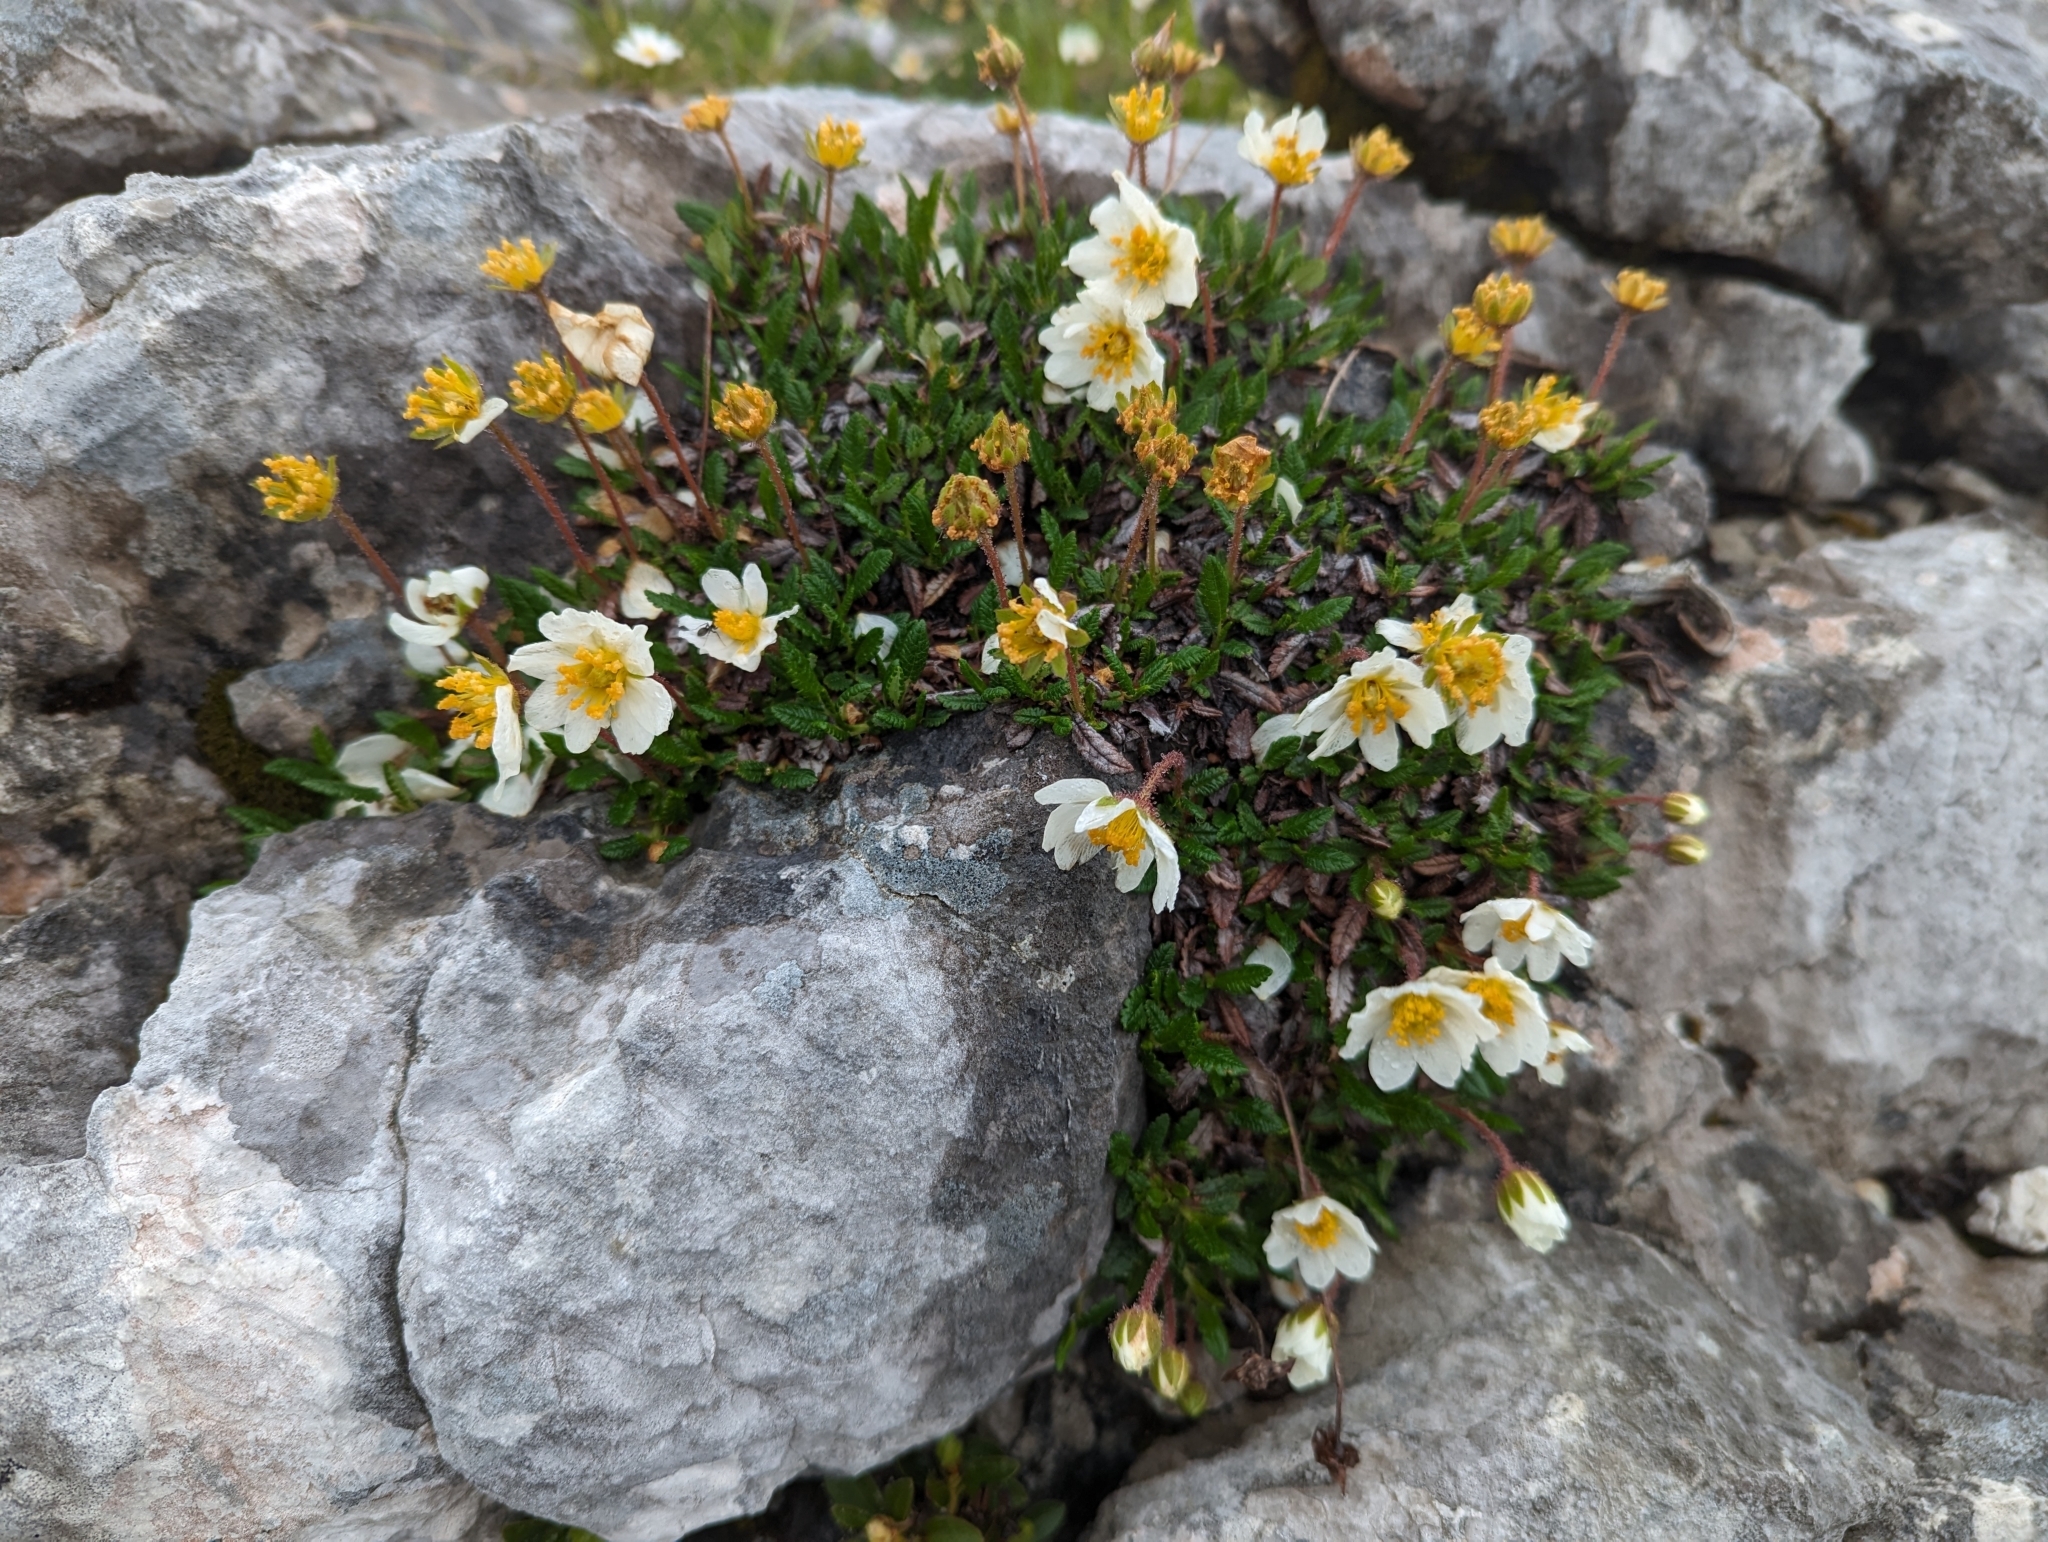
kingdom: Plantae
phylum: Tracheophyta
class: Magnoliopsida
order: Rosales
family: Rosaceae
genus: Dryas
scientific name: Dryas octopetala
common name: Eight-petal mountain-avens
